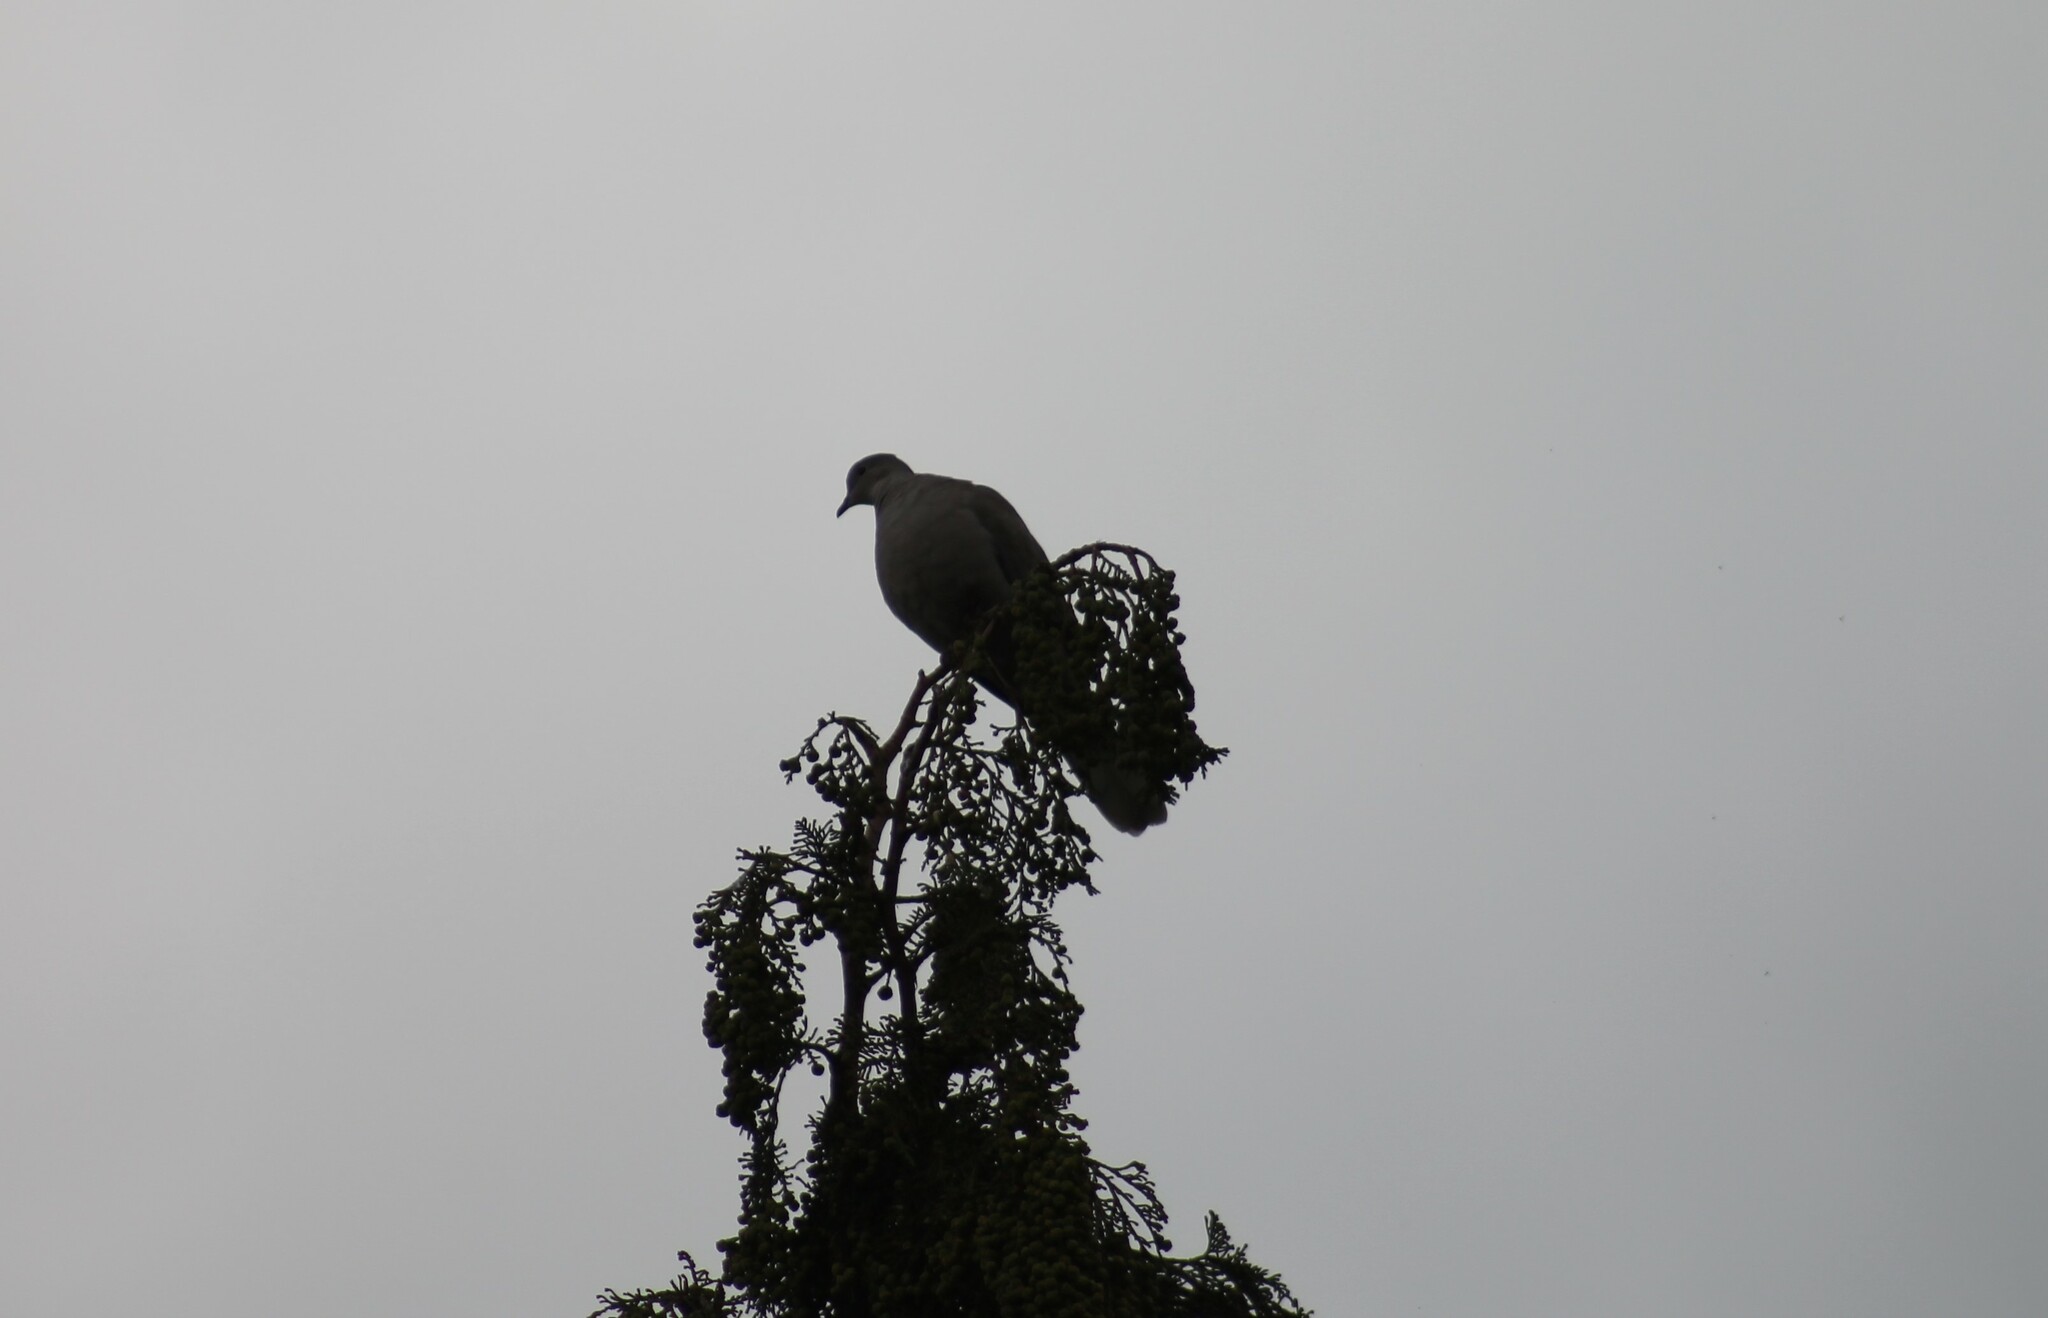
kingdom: Animalia
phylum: Chordata
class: Aves
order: Columbiformes
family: Columbidae
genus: Streptopelia
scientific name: Streptopelia decaocto
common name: Eurasian collared dove
